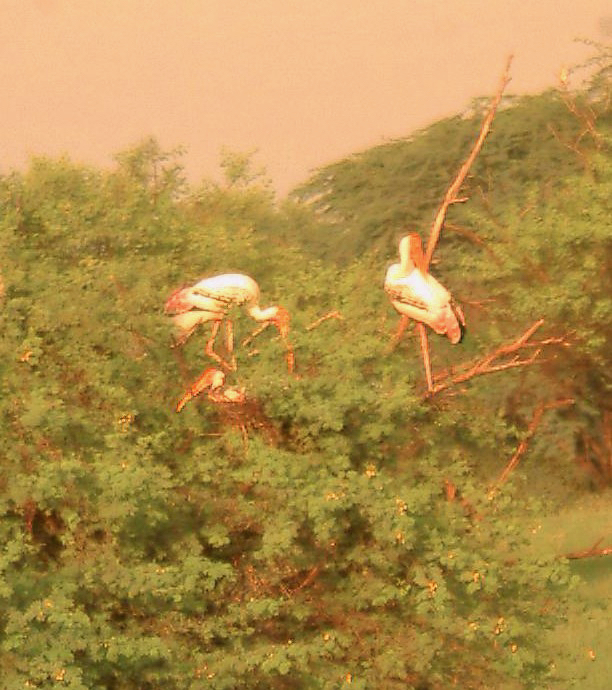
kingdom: Animalia
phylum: Chordata
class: Aves
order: Ciconiiformes
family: Ciconiidae
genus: Mycteria
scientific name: Mycteria leucocephala
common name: Painted stork
